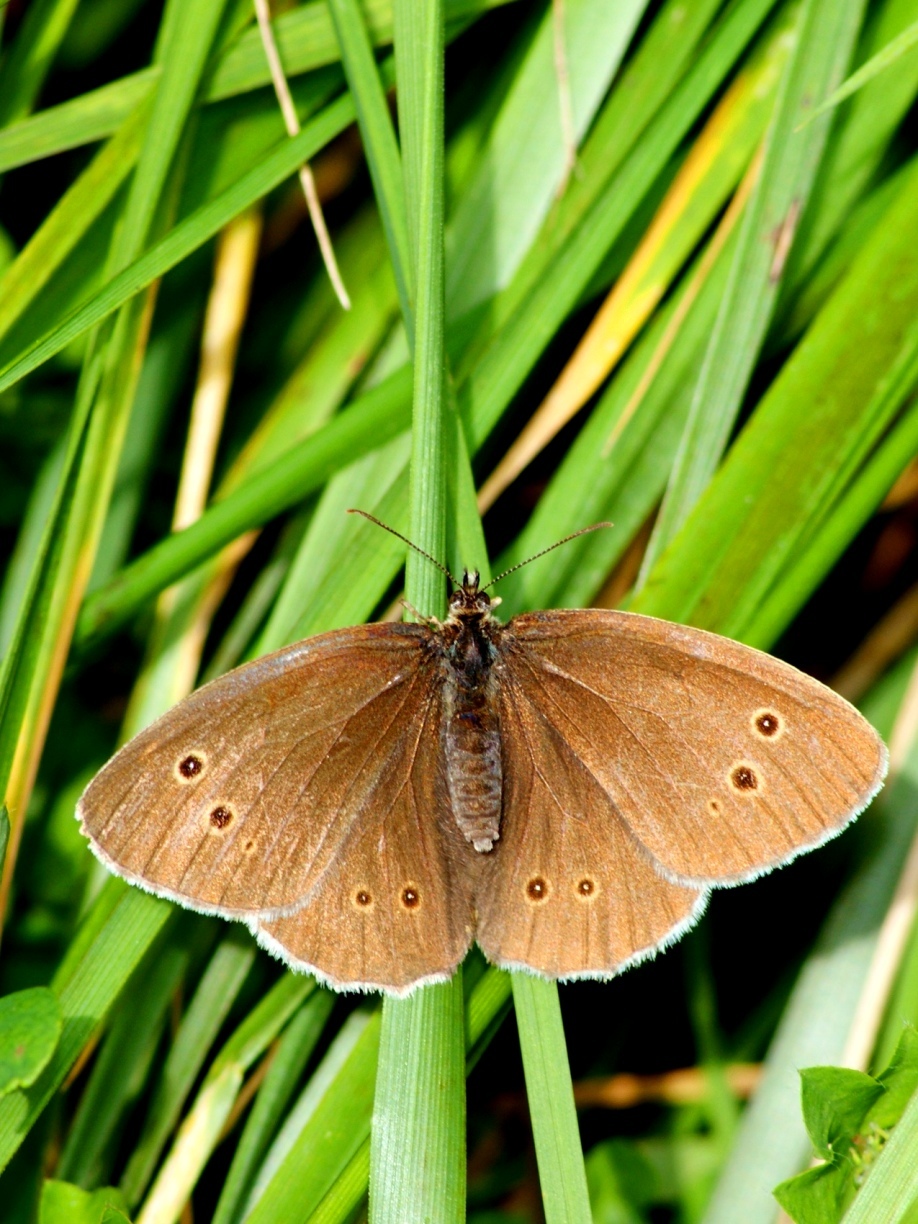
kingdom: Animalia
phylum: Arthropoda
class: Insecta
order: Lepidoptera
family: Nymphalidae
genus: Aphantopus
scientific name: Aphantopus hyperantus
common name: Ringlet
